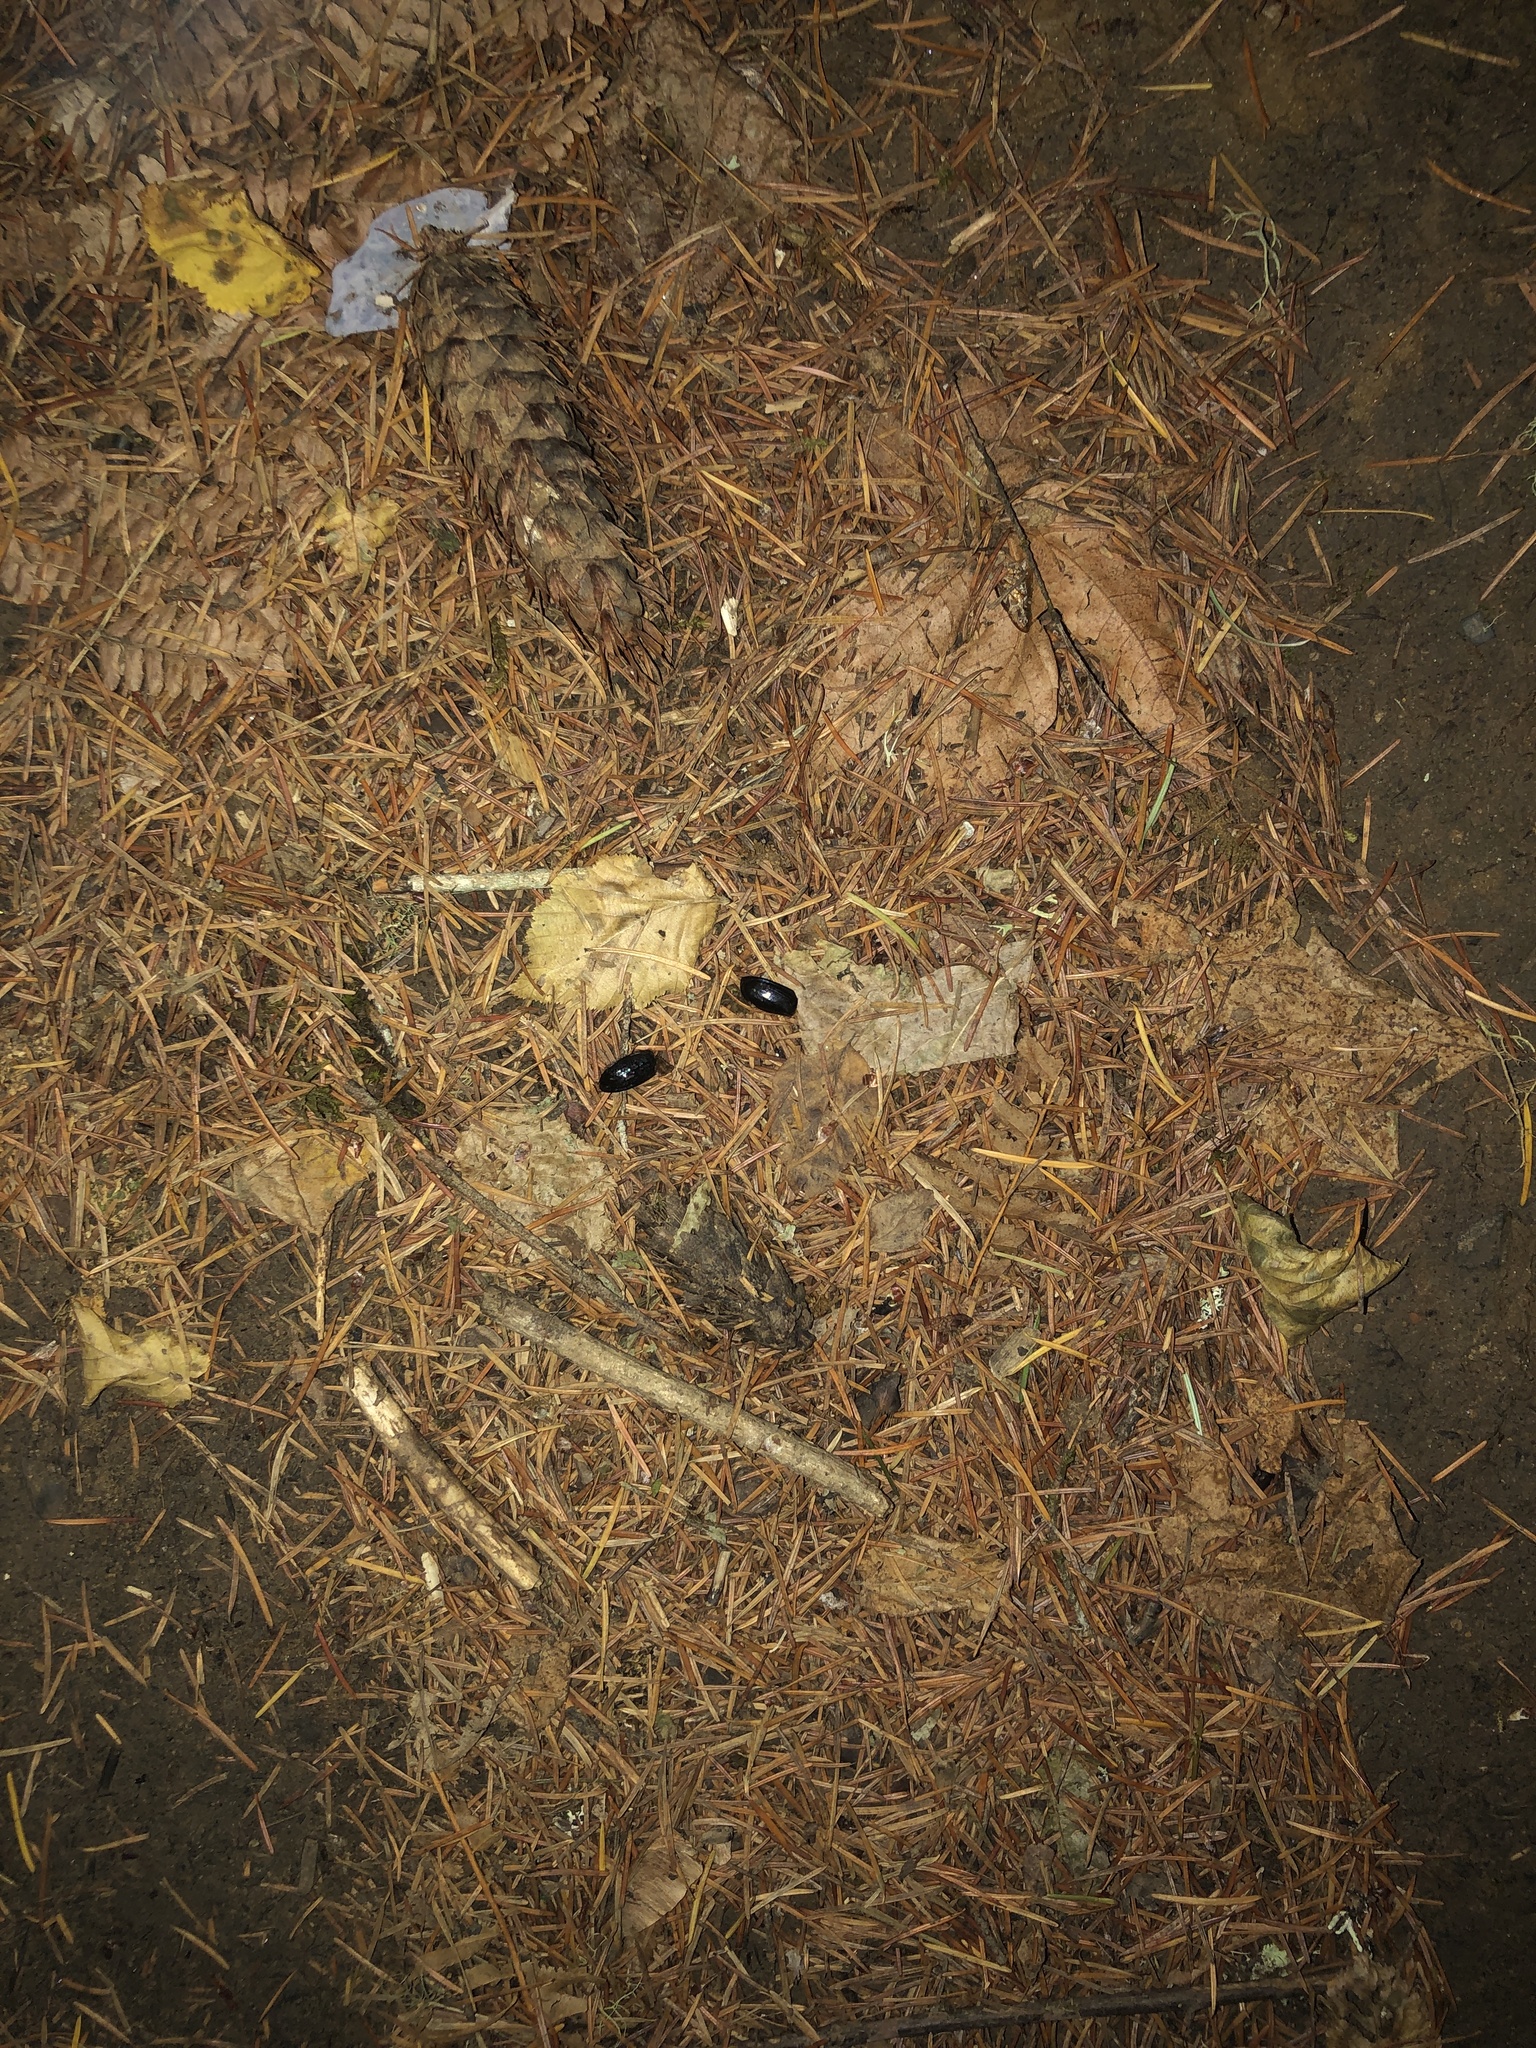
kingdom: Animalia
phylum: Arthropoda
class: Insecta
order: Coleoptera
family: Pleocomidae
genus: Pleocoma
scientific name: Pleocoma dubitabilis
